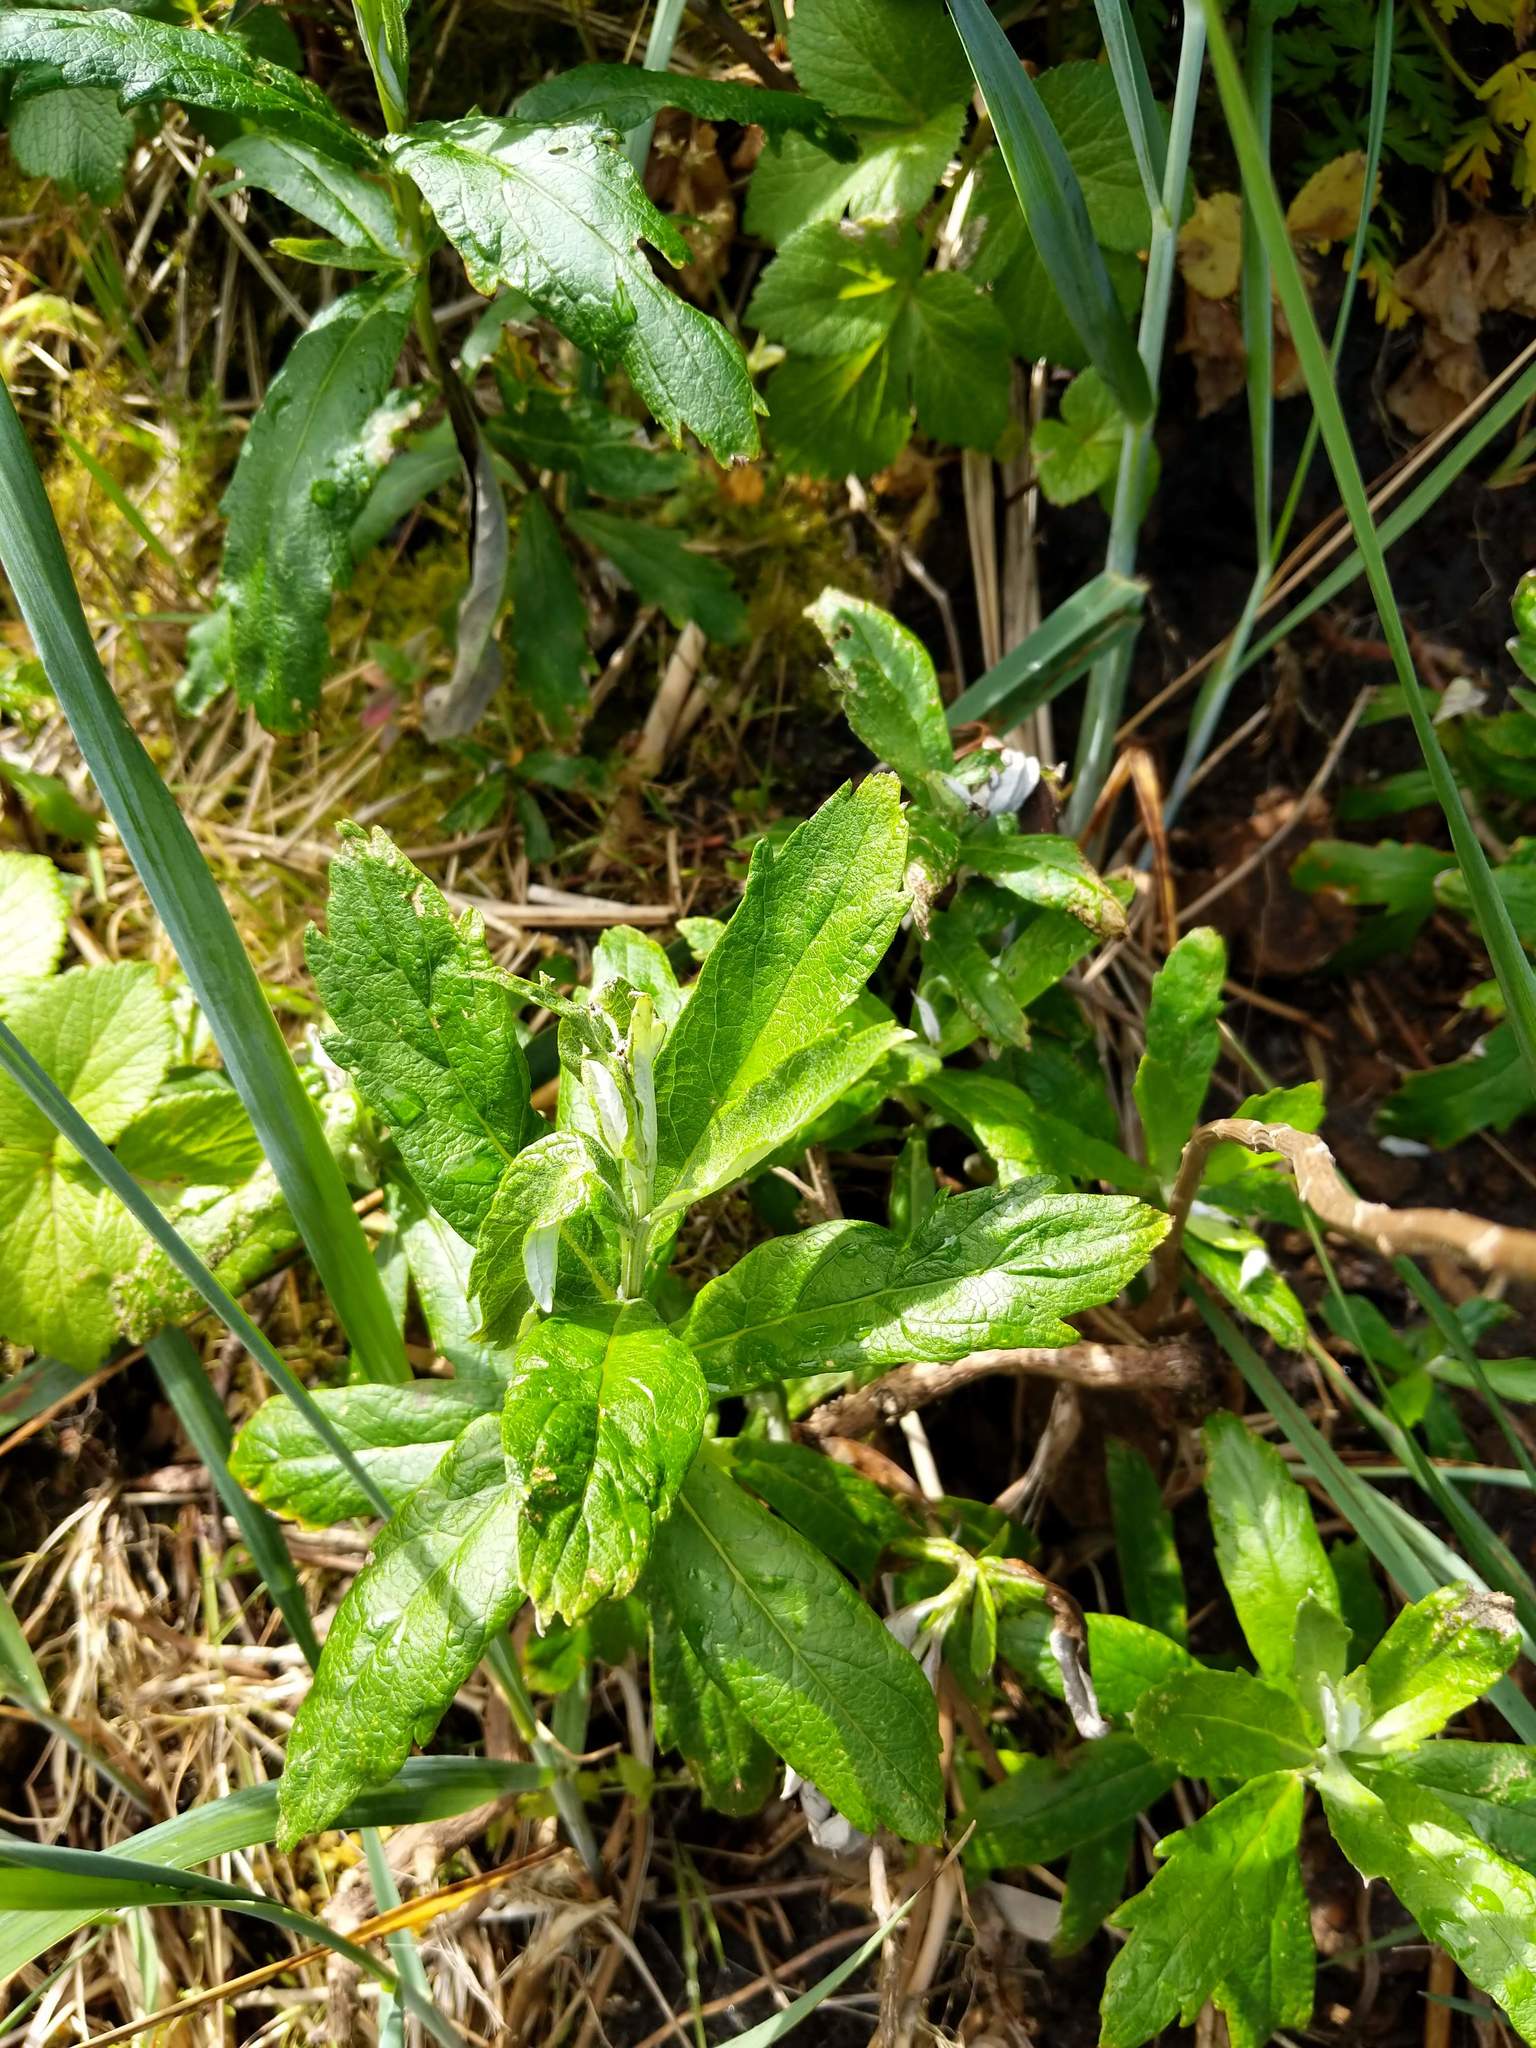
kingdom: Plantae
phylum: Tracheophyta
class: Magnoliopsida
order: Asterales
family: Asteraceae
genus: Artemisia
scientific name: Artemisia suksdorfii
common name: Suksdorf sagewort
